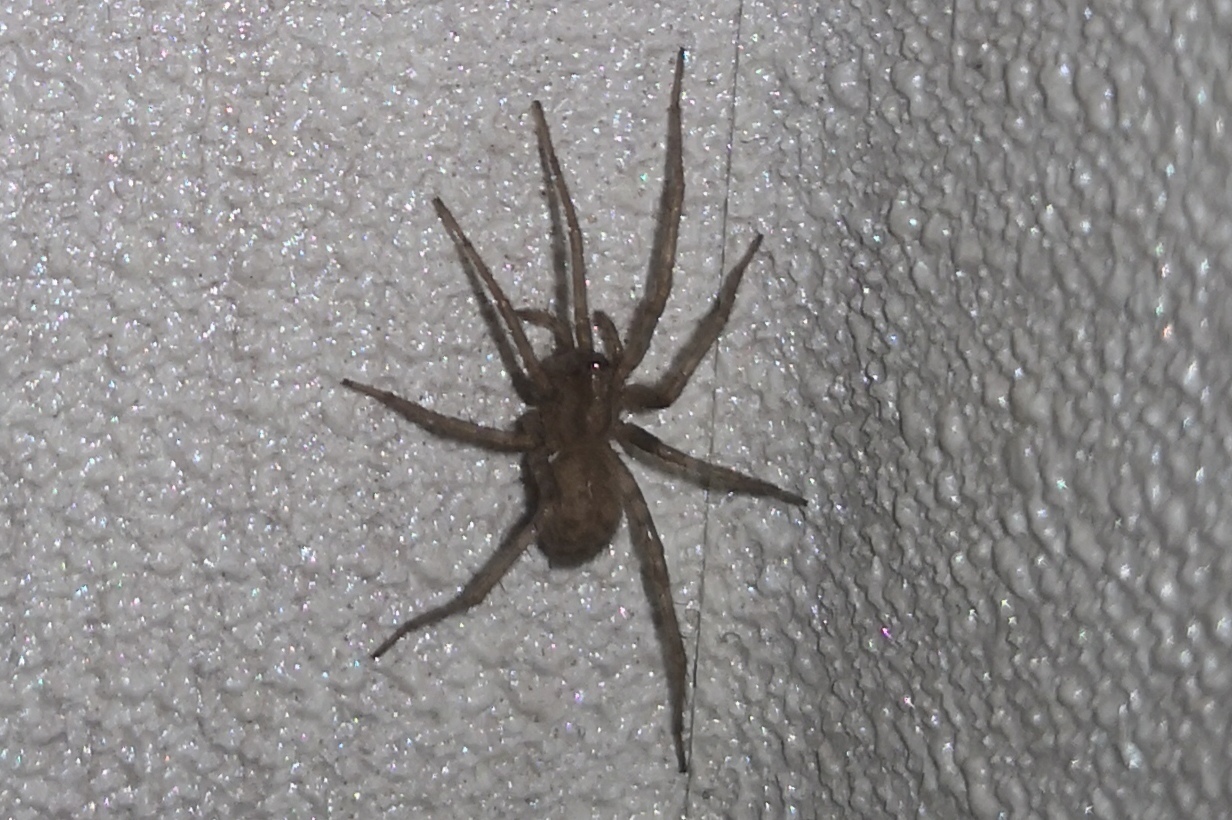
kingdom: Animalia
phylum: Arthropoda
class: Arachnida
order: Araneae
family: Agelenidae
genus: Tegenaria
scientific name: Tegenaria domestica
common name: Barn funnel weaver
